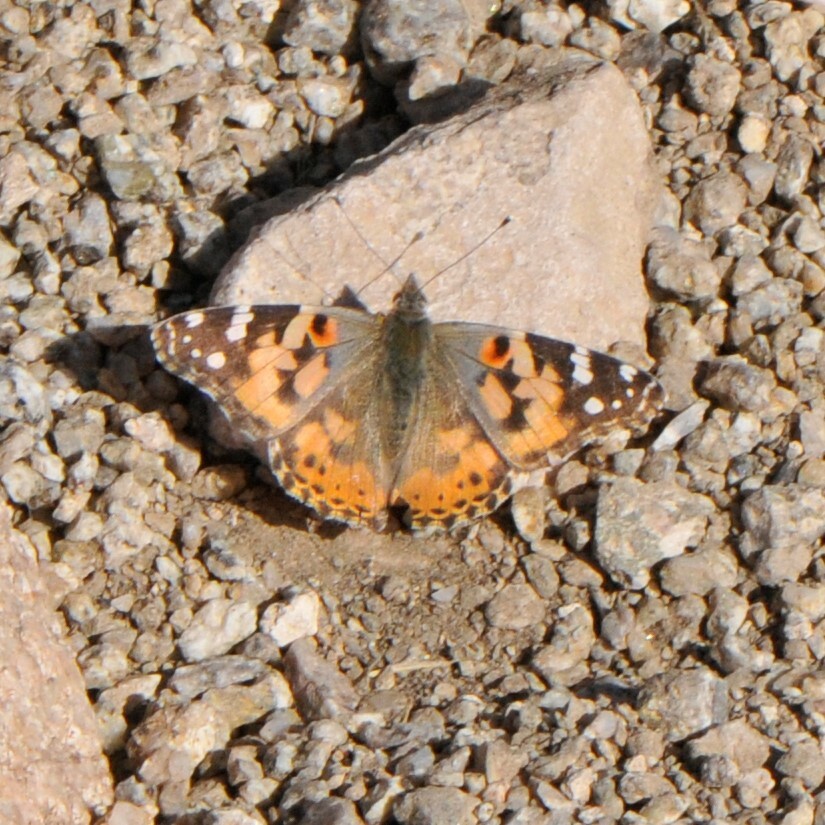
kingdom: Animalia
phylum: Arthropoda
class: Insecta
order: Lepidoptera
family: Nymphalidae
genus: Vanessa
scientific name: Vanessa cardui
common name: Painted lady
